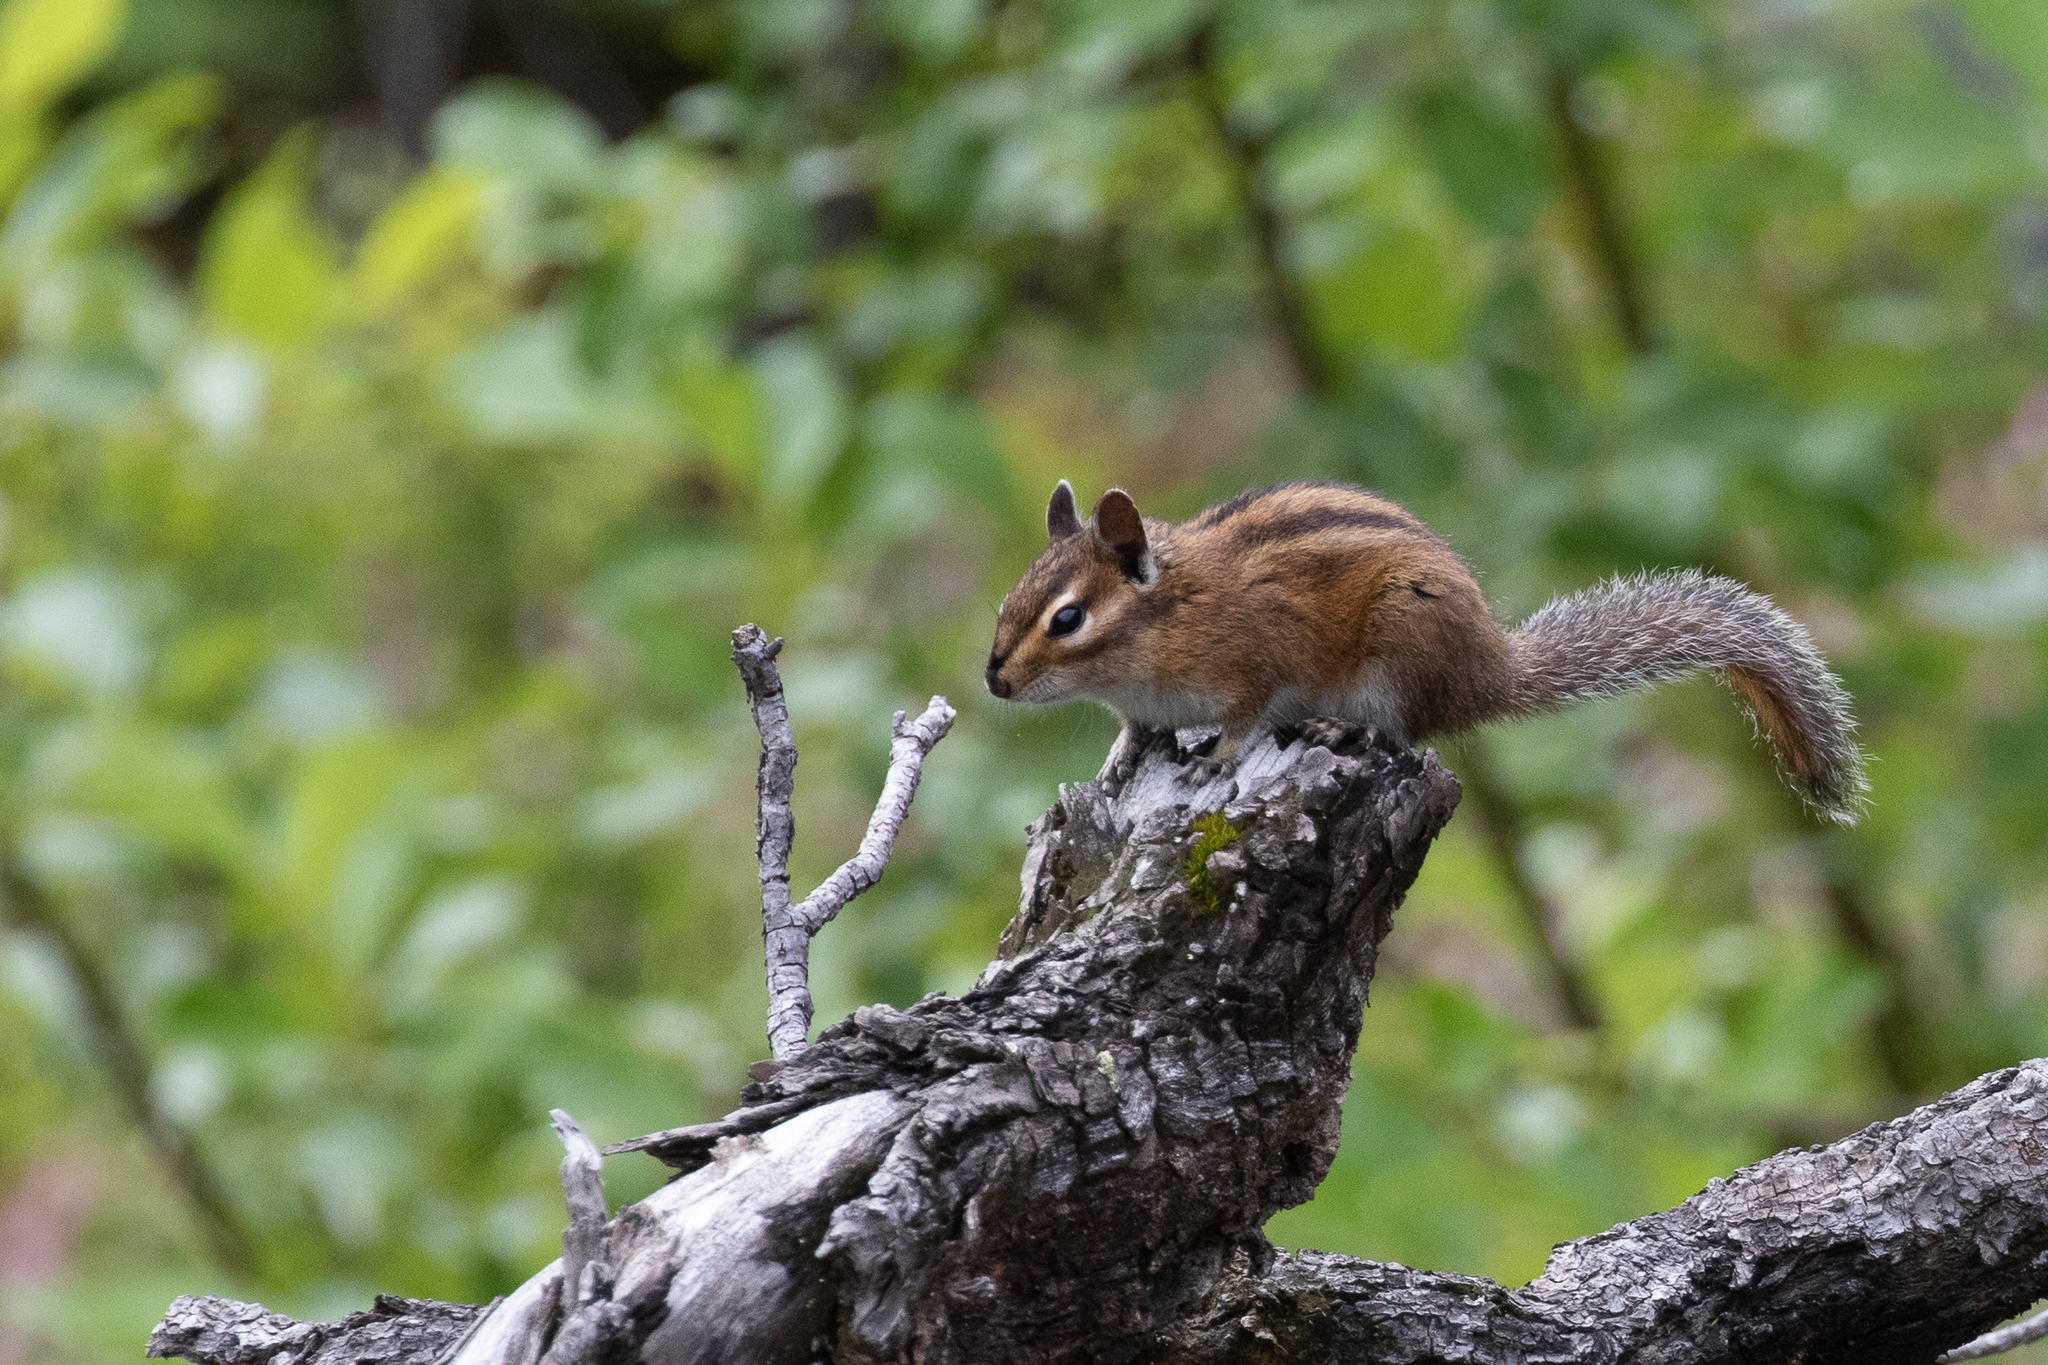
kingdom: Animalia
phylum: Chordata
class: Mammalia
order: Rodentia
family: Sciuridae
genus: Tamias
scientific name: Tamias townsendii
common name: Townsend's chipmunk
